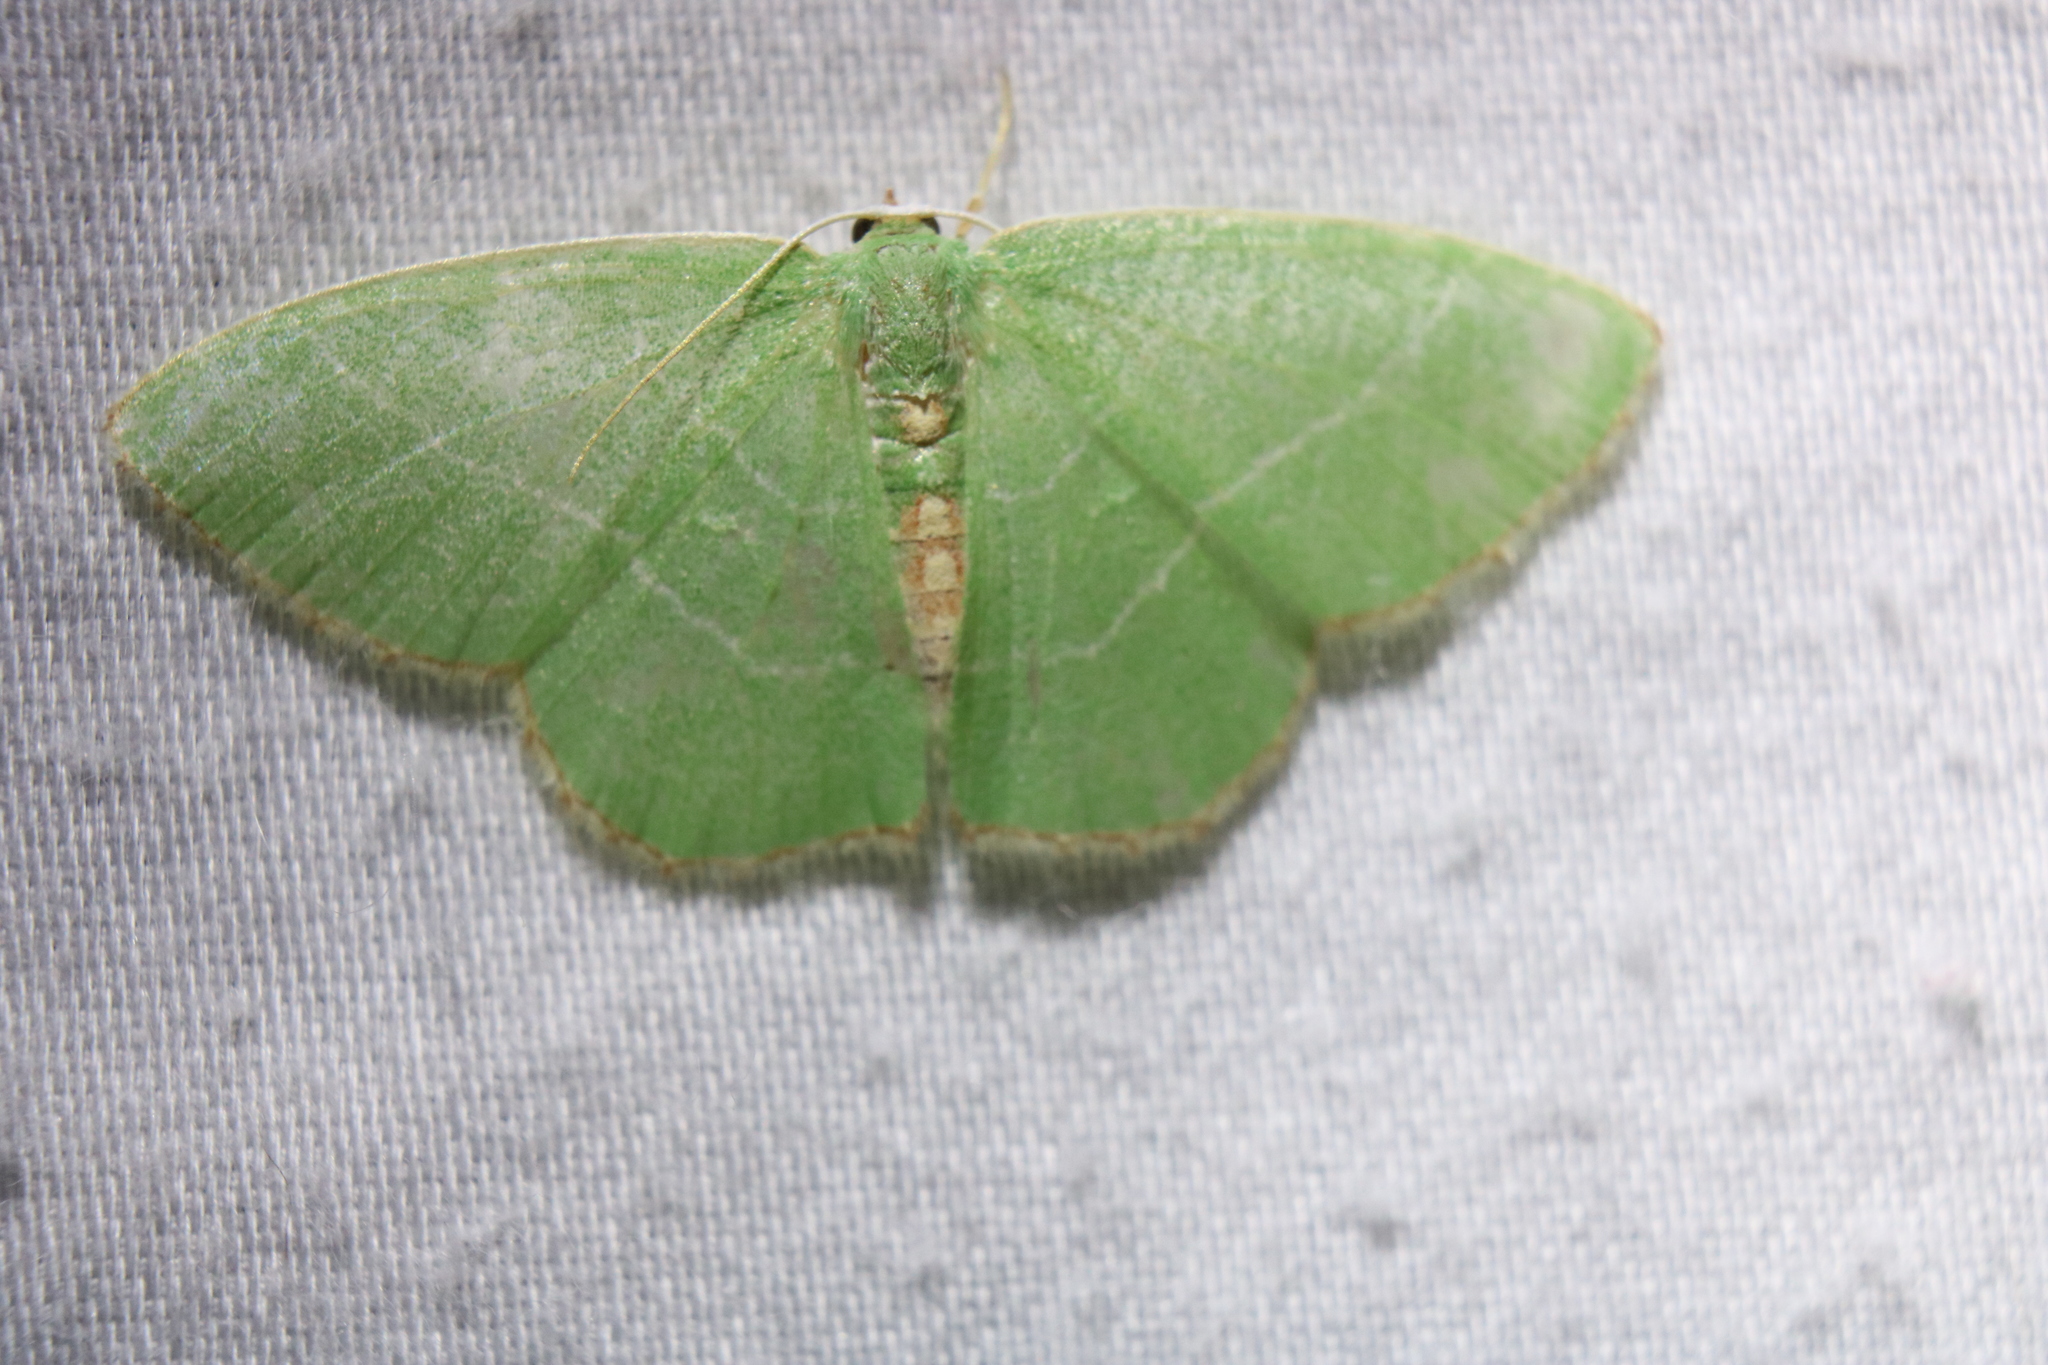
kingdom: Animalia
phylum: Arthropoda
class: Insecta
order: Lepidoptera
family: Geometridae
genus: Nemoria
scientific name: Nemoria bistriaria
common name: Red-fringed emerald
